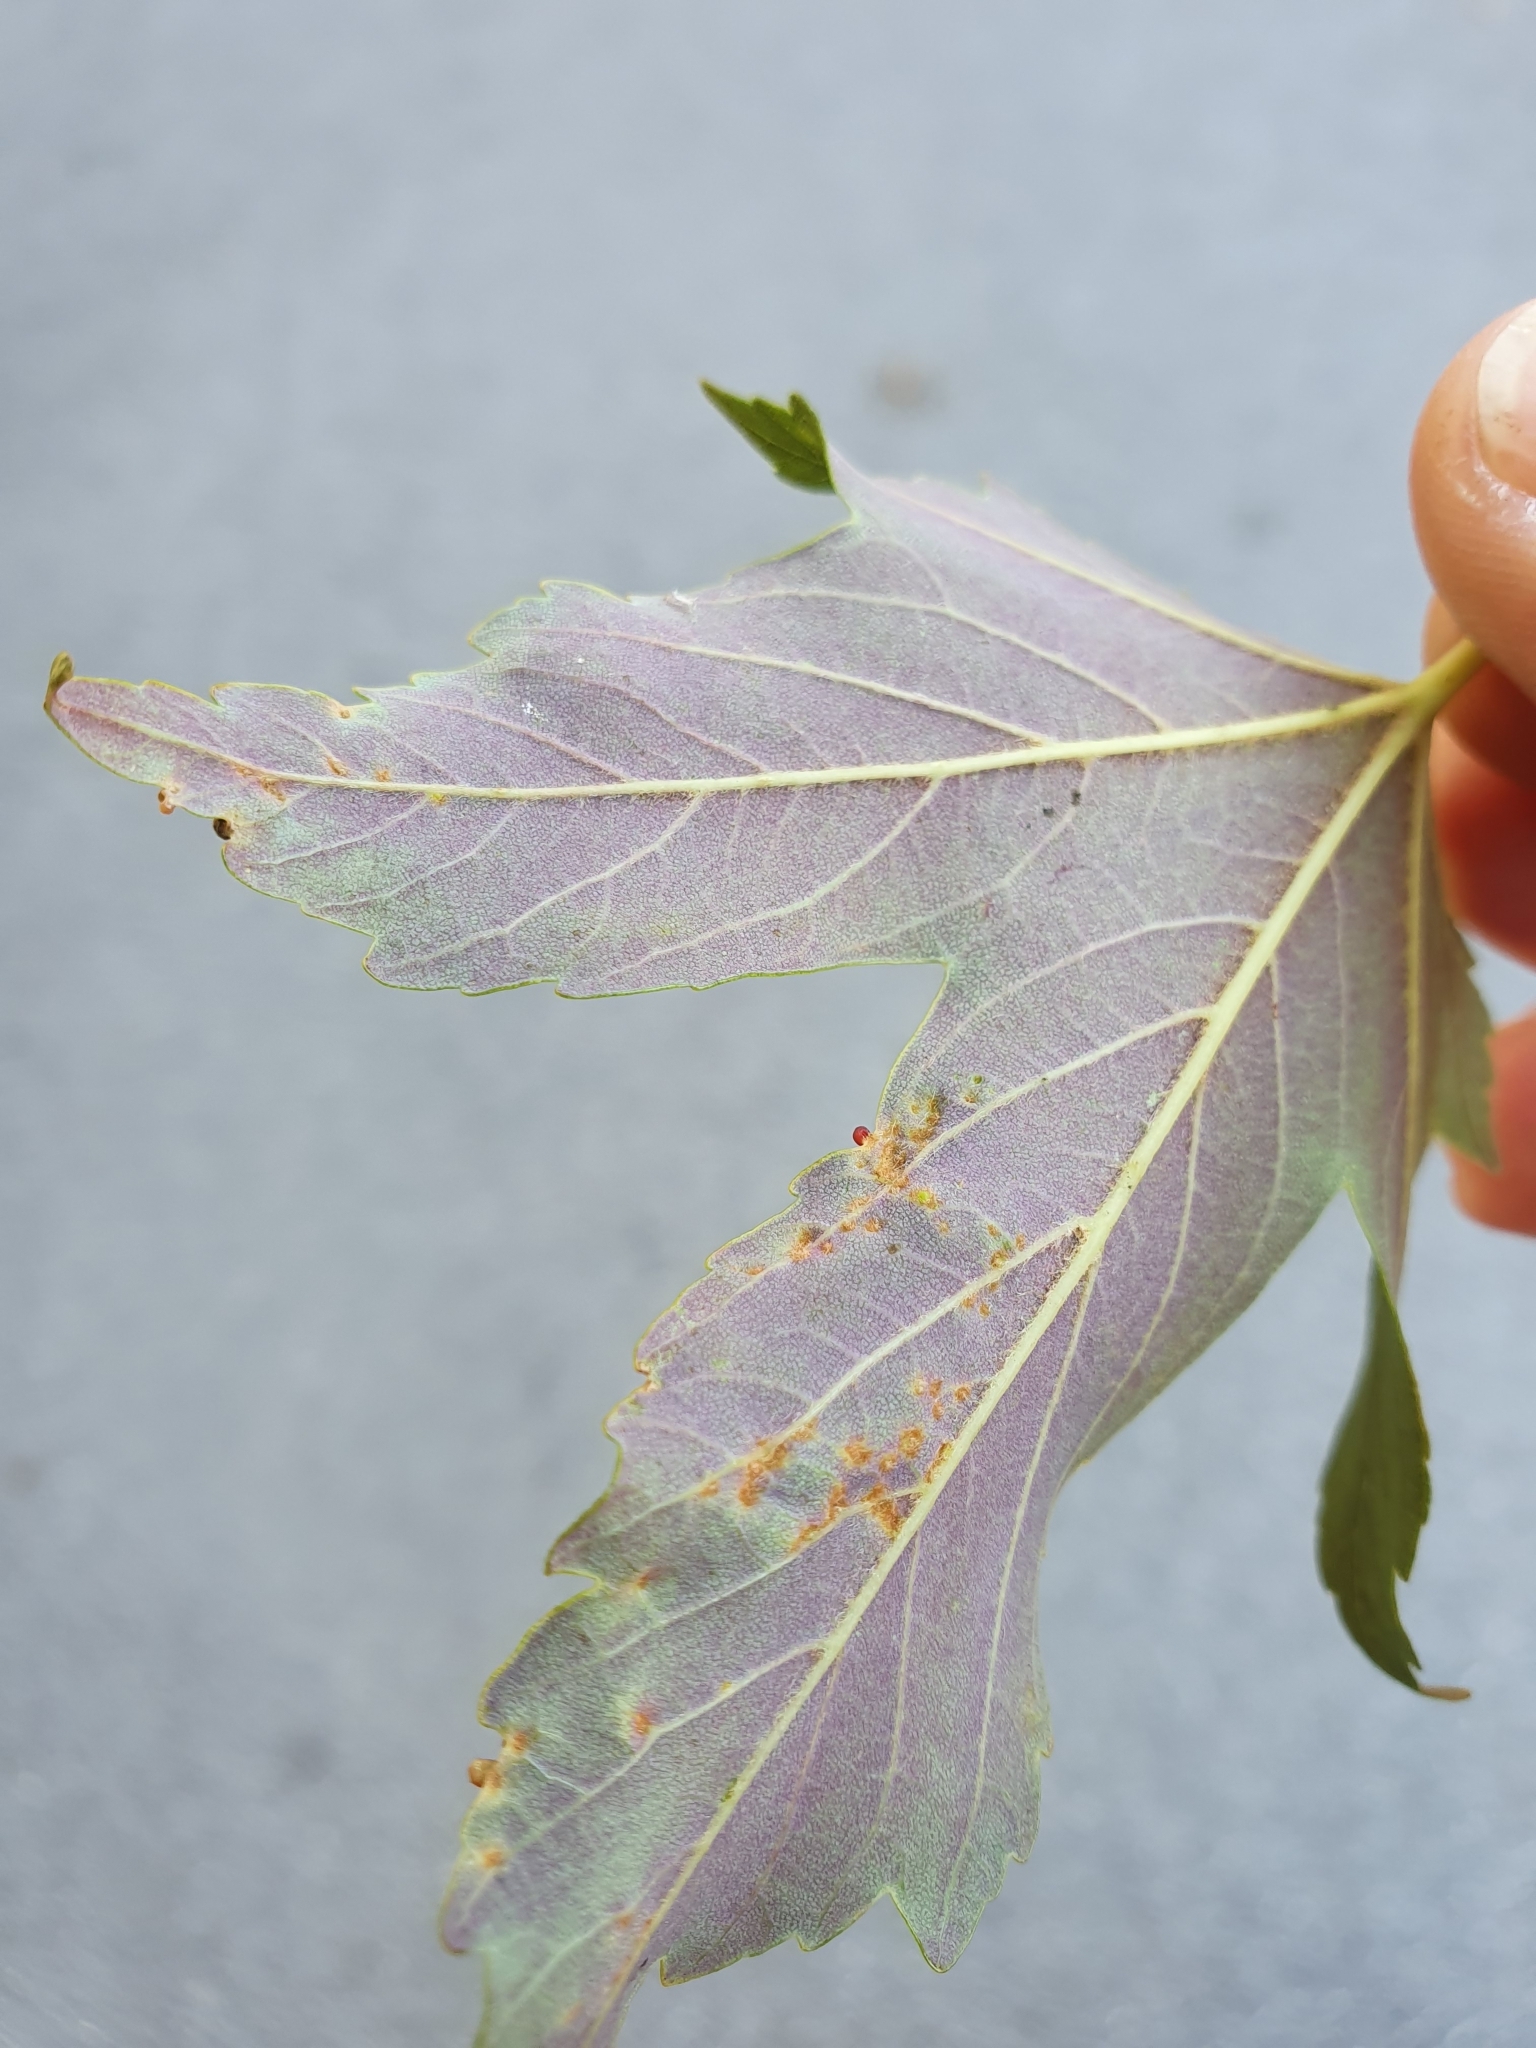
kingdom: Animalia
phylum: Arthropoda
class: Arachnida
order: Trombidiformes
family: Eriophyidae
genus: Aceria
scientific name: Aceria macrorhynchus
